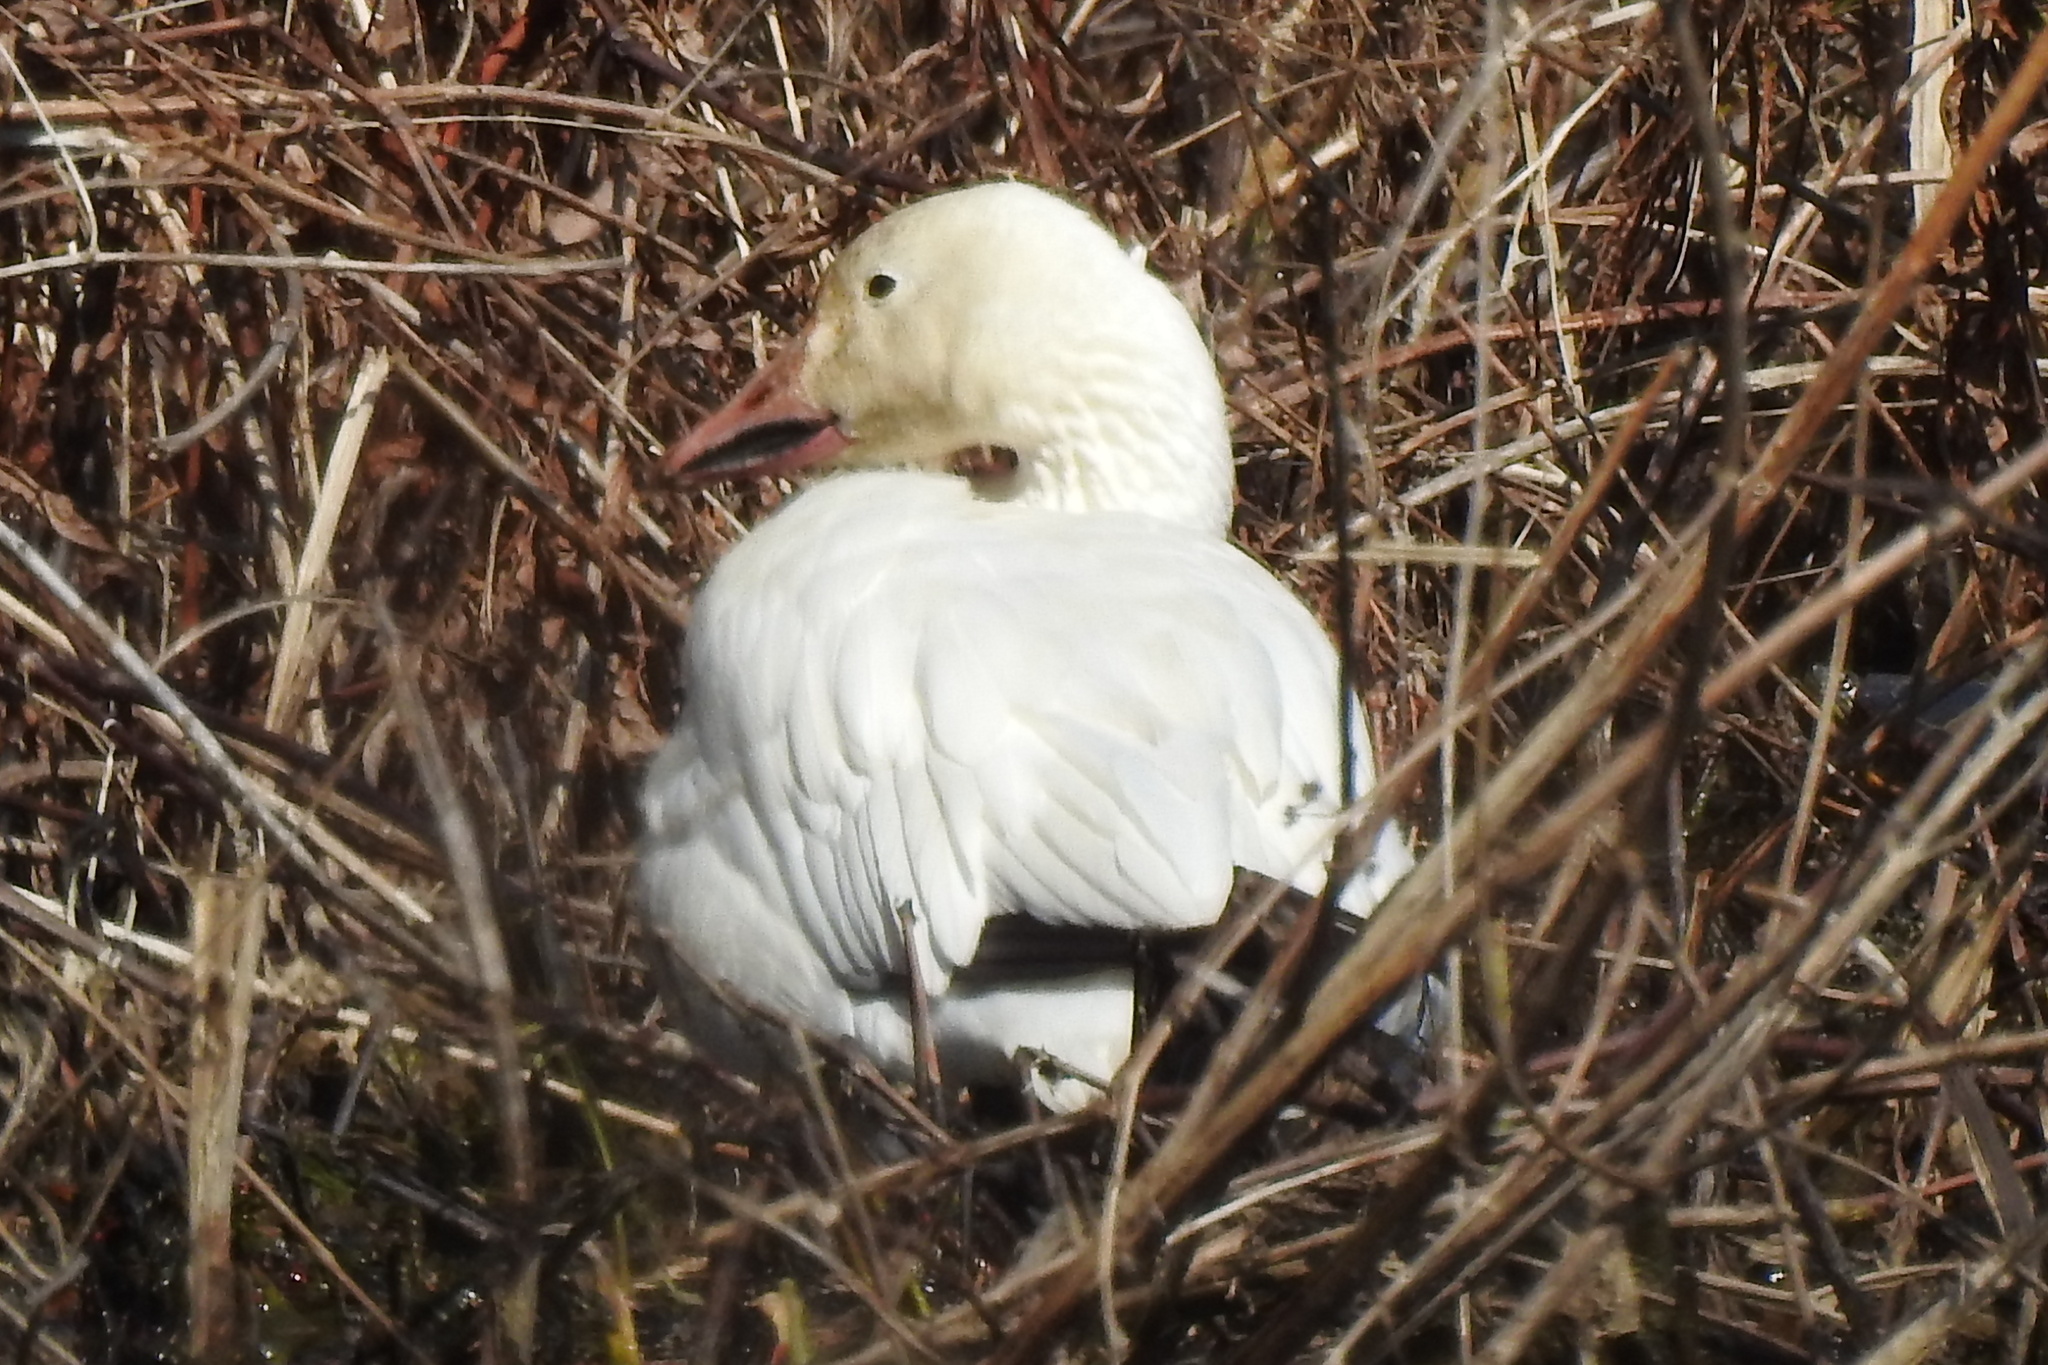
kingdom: Animalia
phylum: Chordata
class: Aves
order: Anseriformes
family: Anatidae
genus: Anser
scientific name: Anser caerulescens
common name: Snow goose
